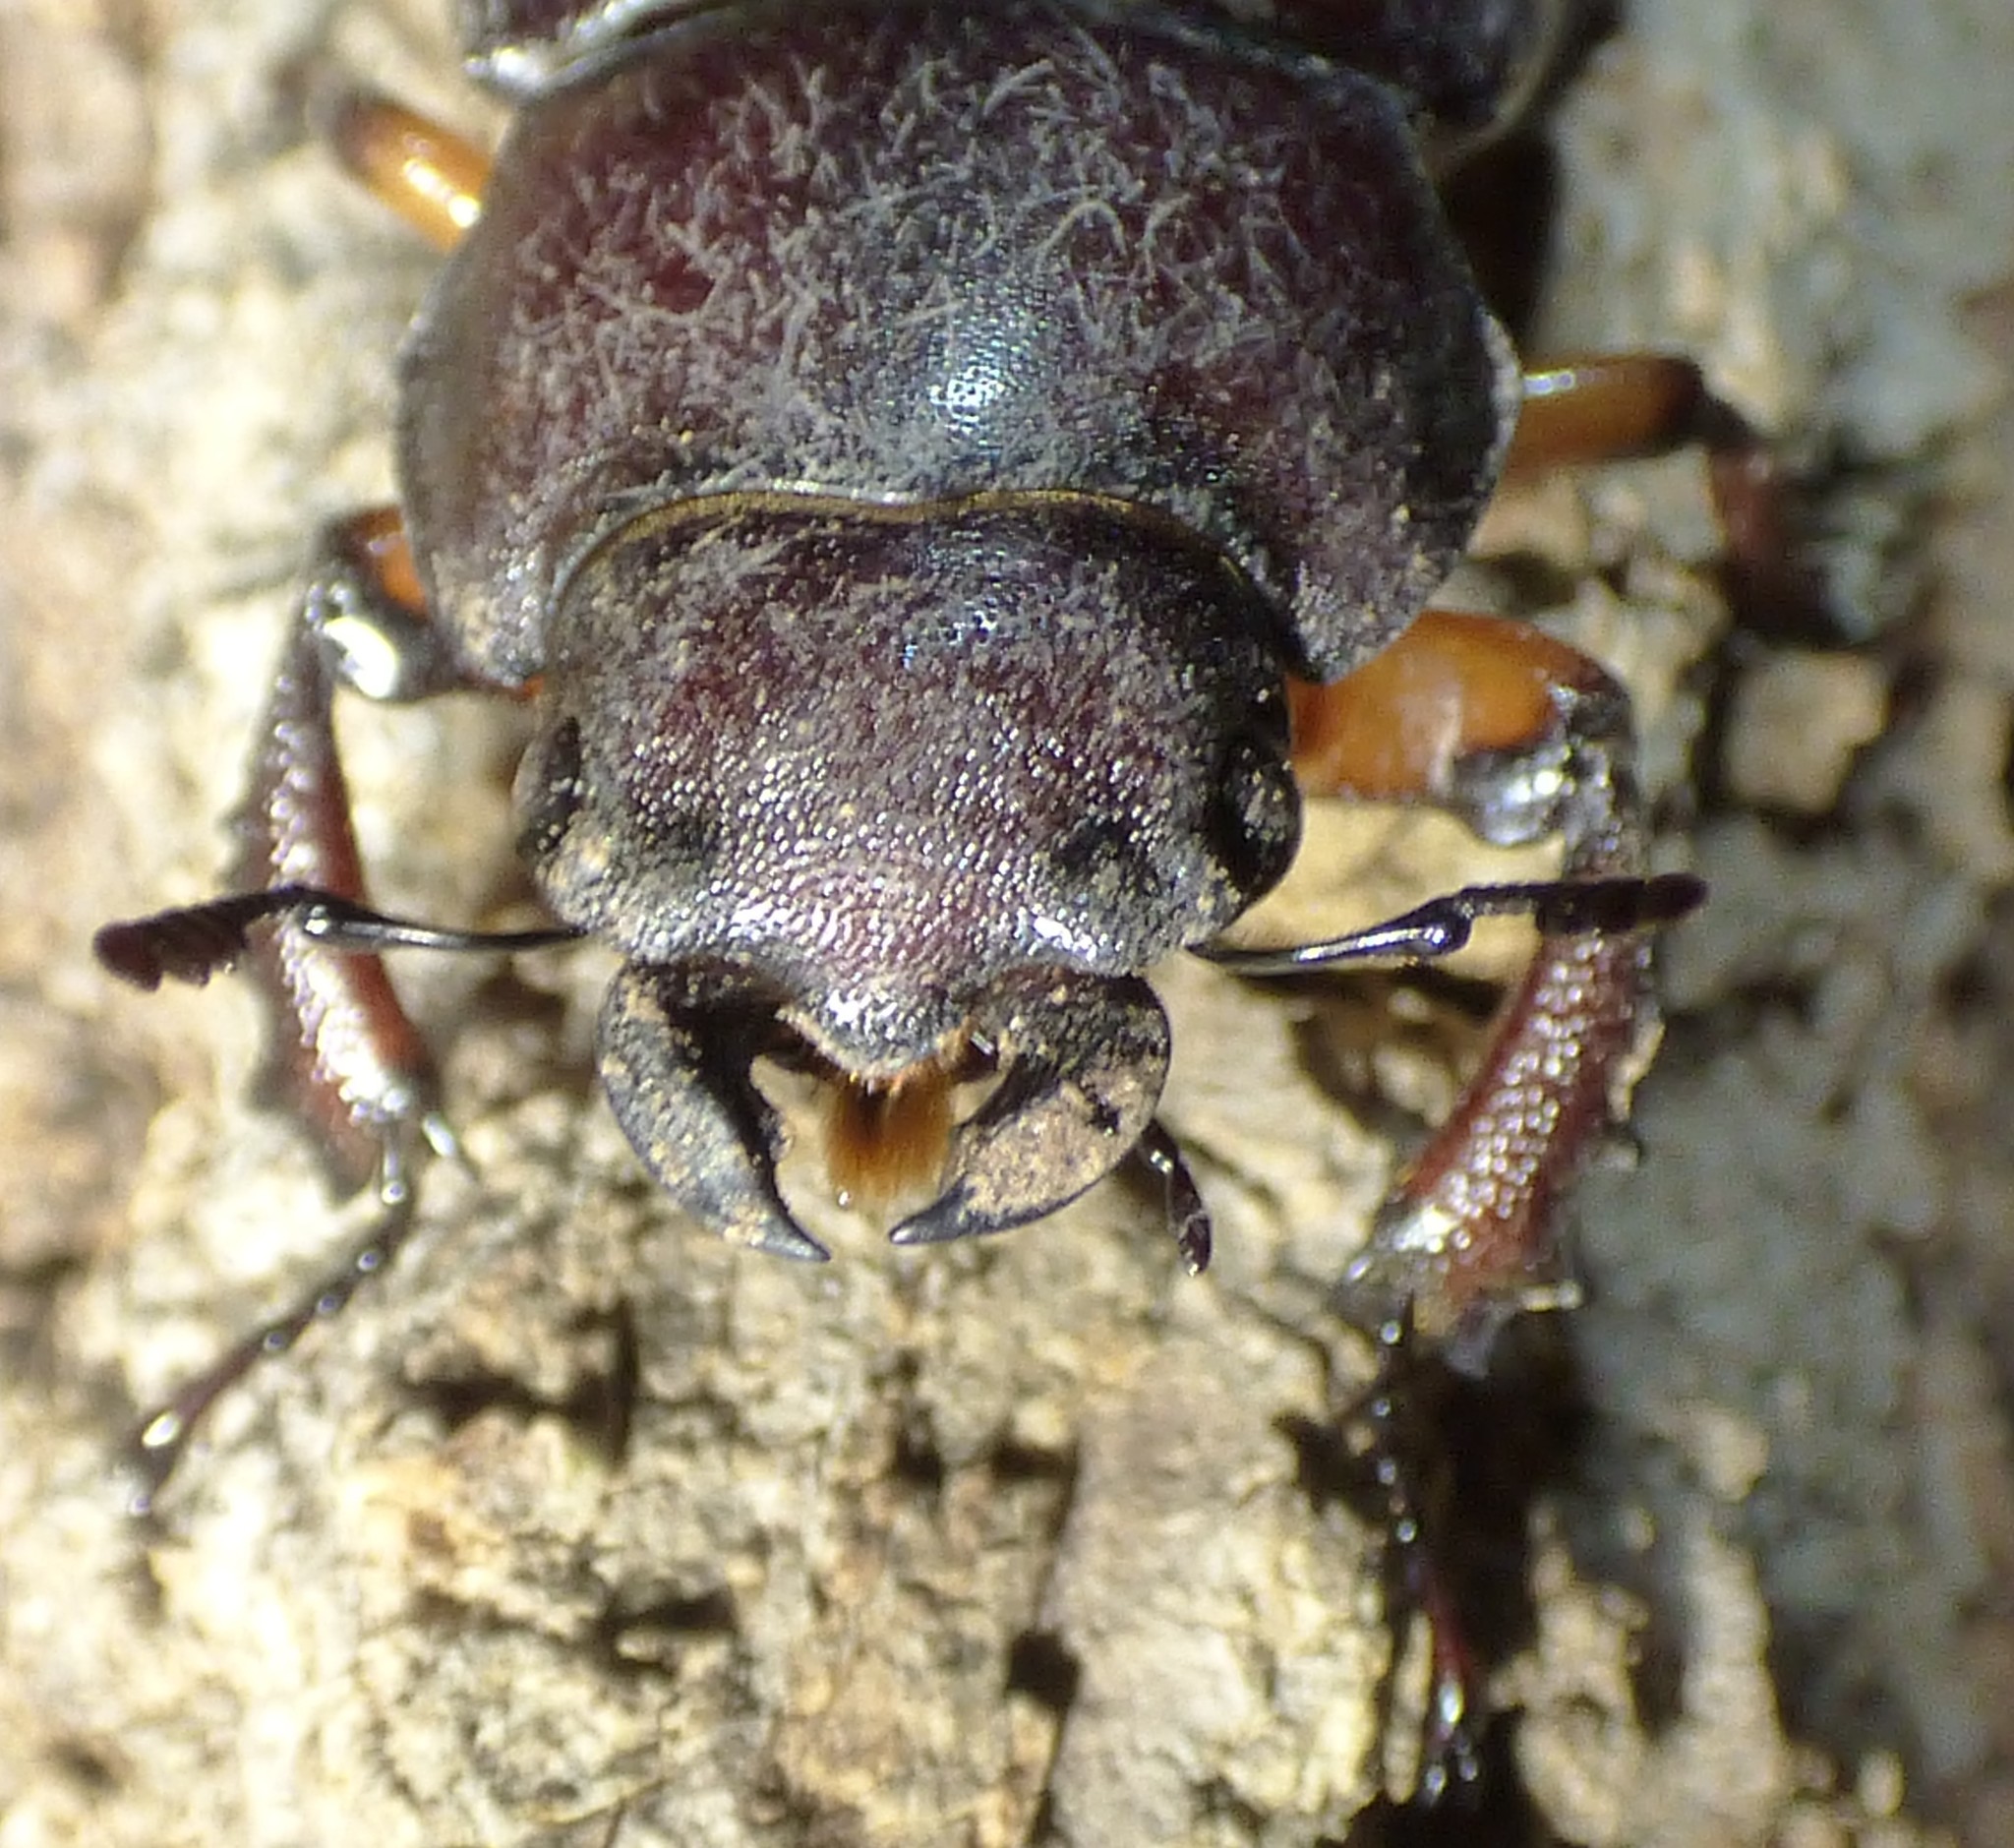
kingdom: Animalia
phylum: Arthropoda
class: Insecta
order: Coleoptera
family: Lucanidae
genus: Lucanus
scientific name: Lucanus capreolus
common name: Stag beetle
